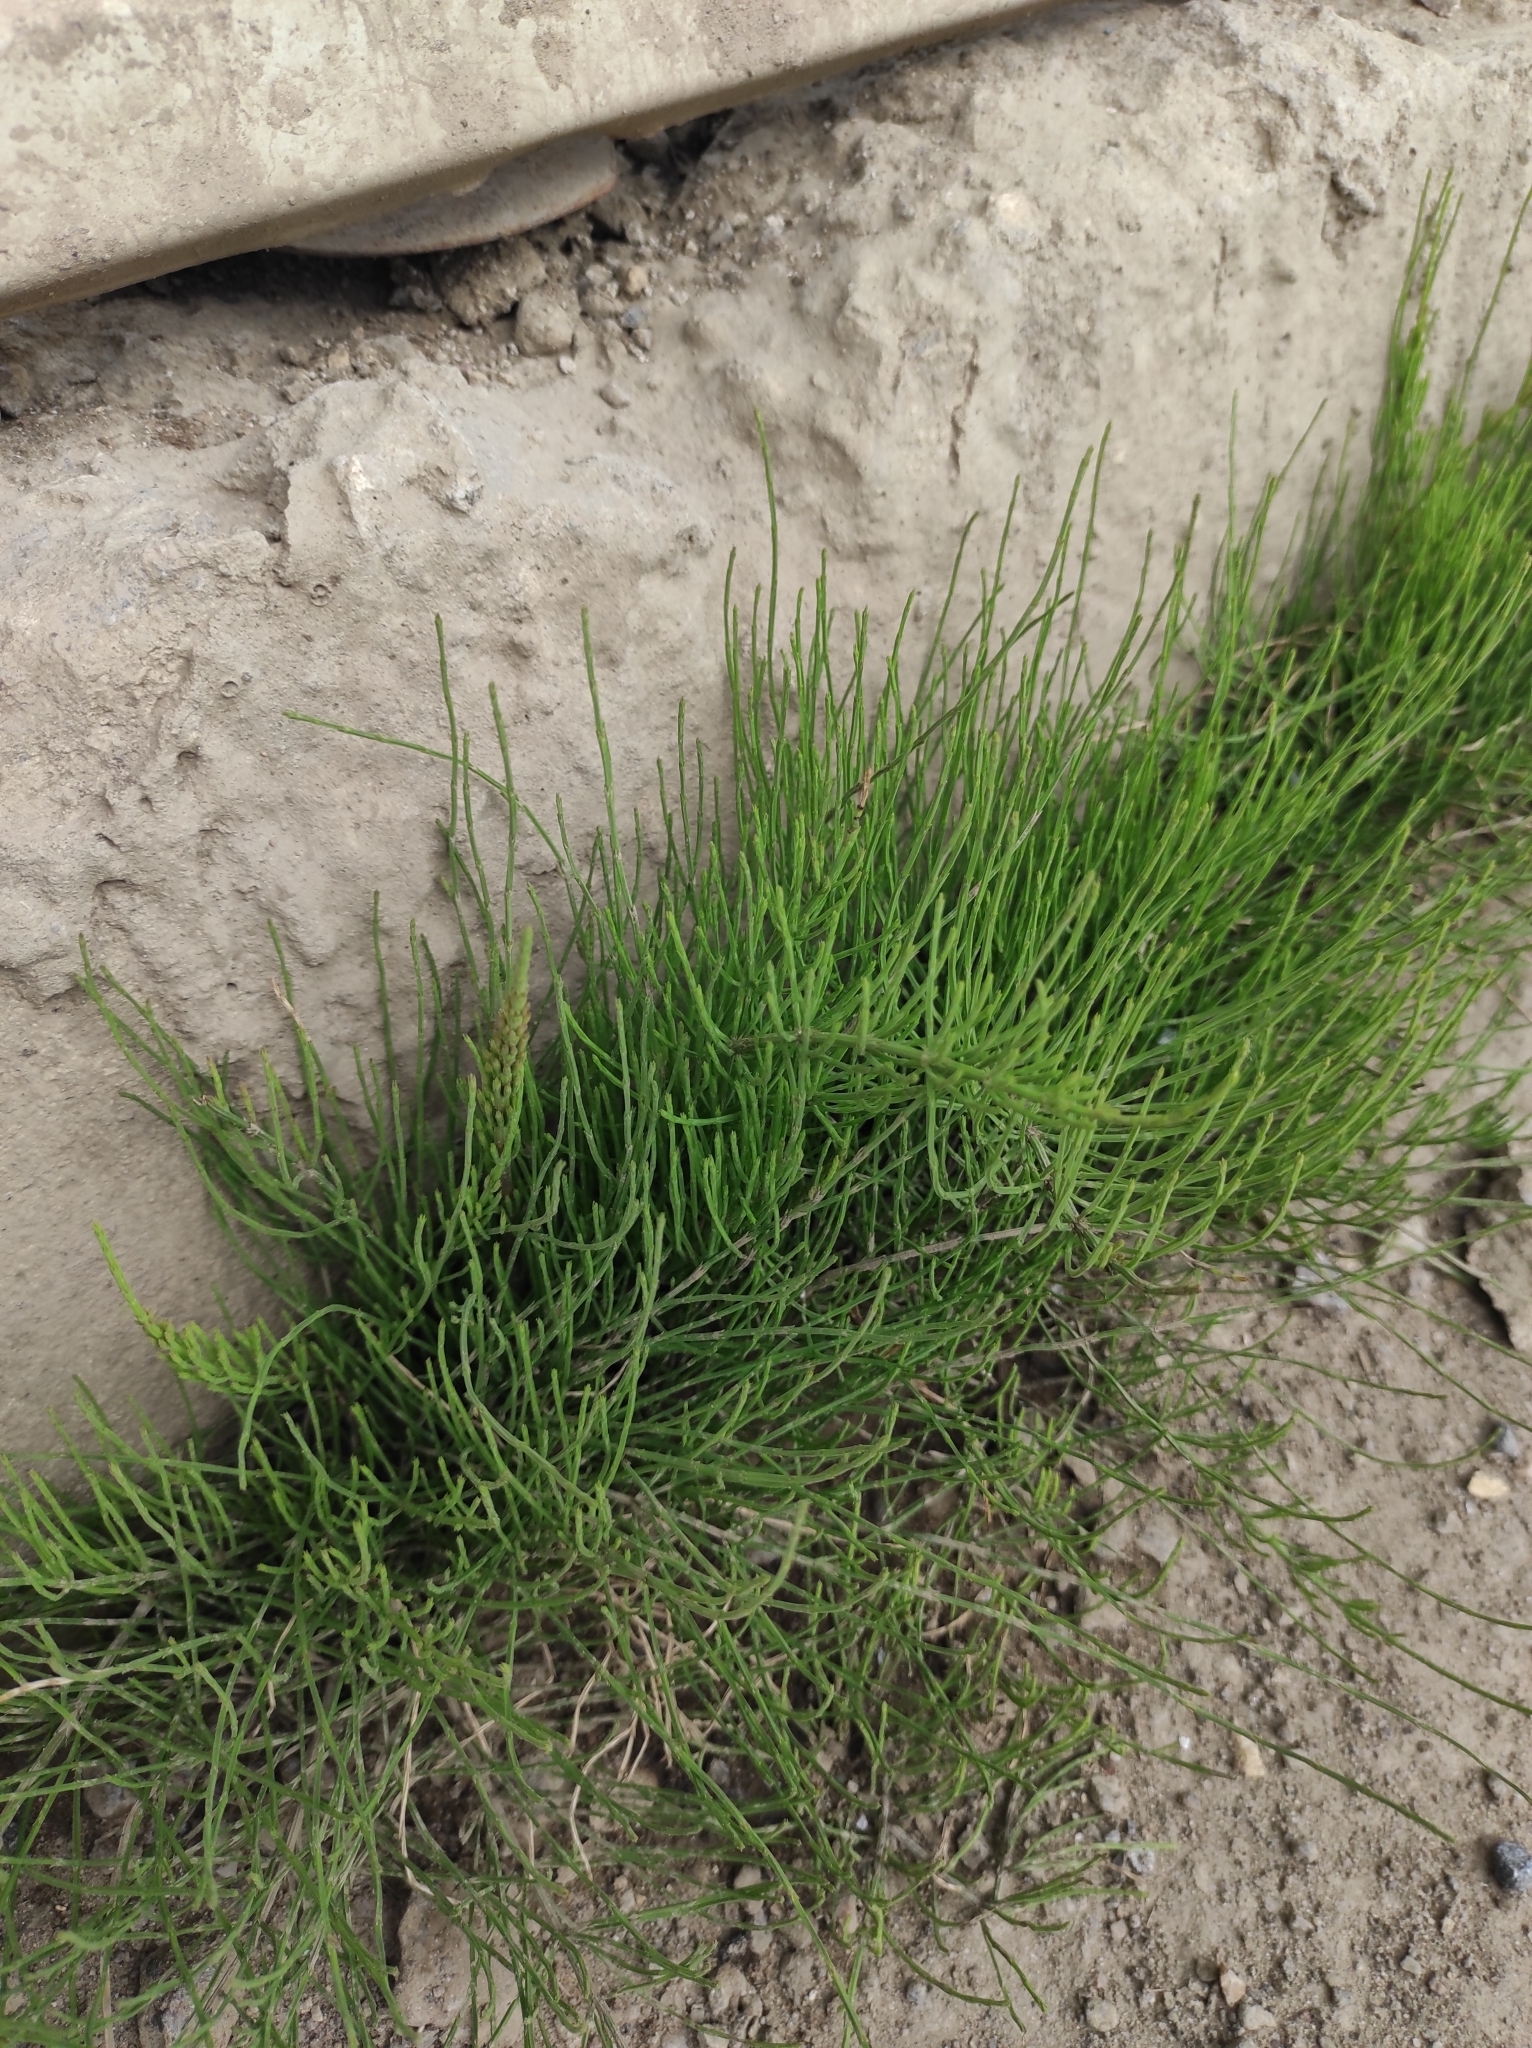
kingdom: Plantae
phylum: Tracheophyta
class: Polypodiopsida
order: Equisetales
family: Equisetaceae
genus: Equisetum
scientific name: Equisetum arvense
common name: Field horsetail
